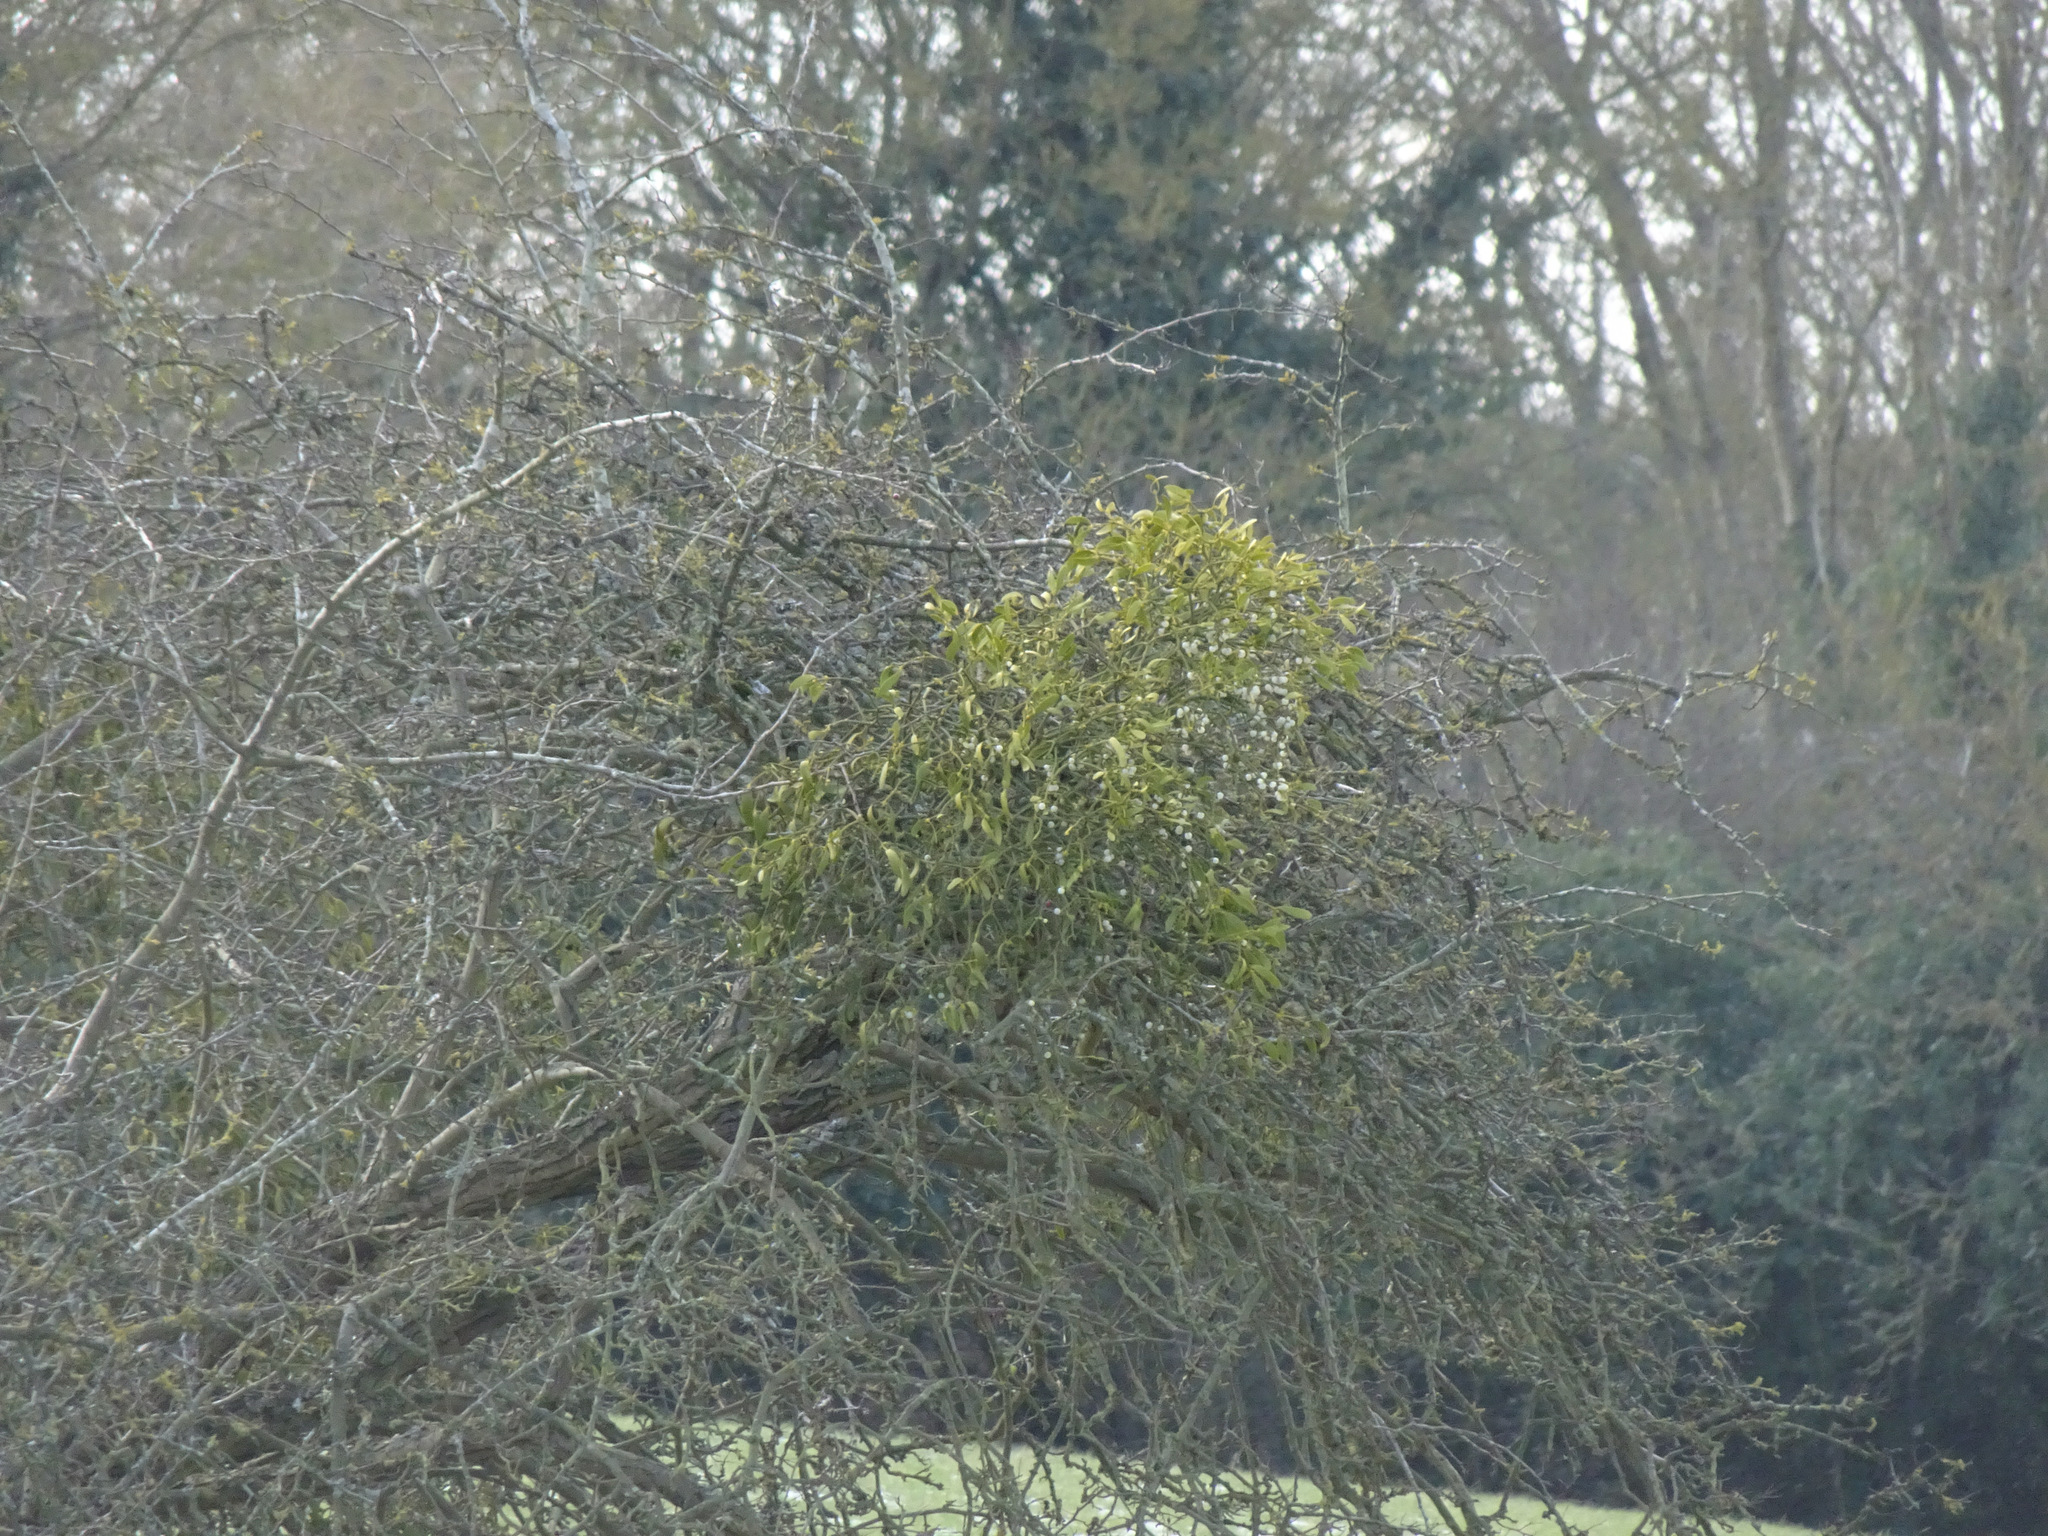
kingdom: Plantae
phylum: Tracheophyta
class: Magnoliopsida
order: Santalales
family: Viscaceae
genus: Viscum
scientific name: Viscum album
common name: Mistletoe
